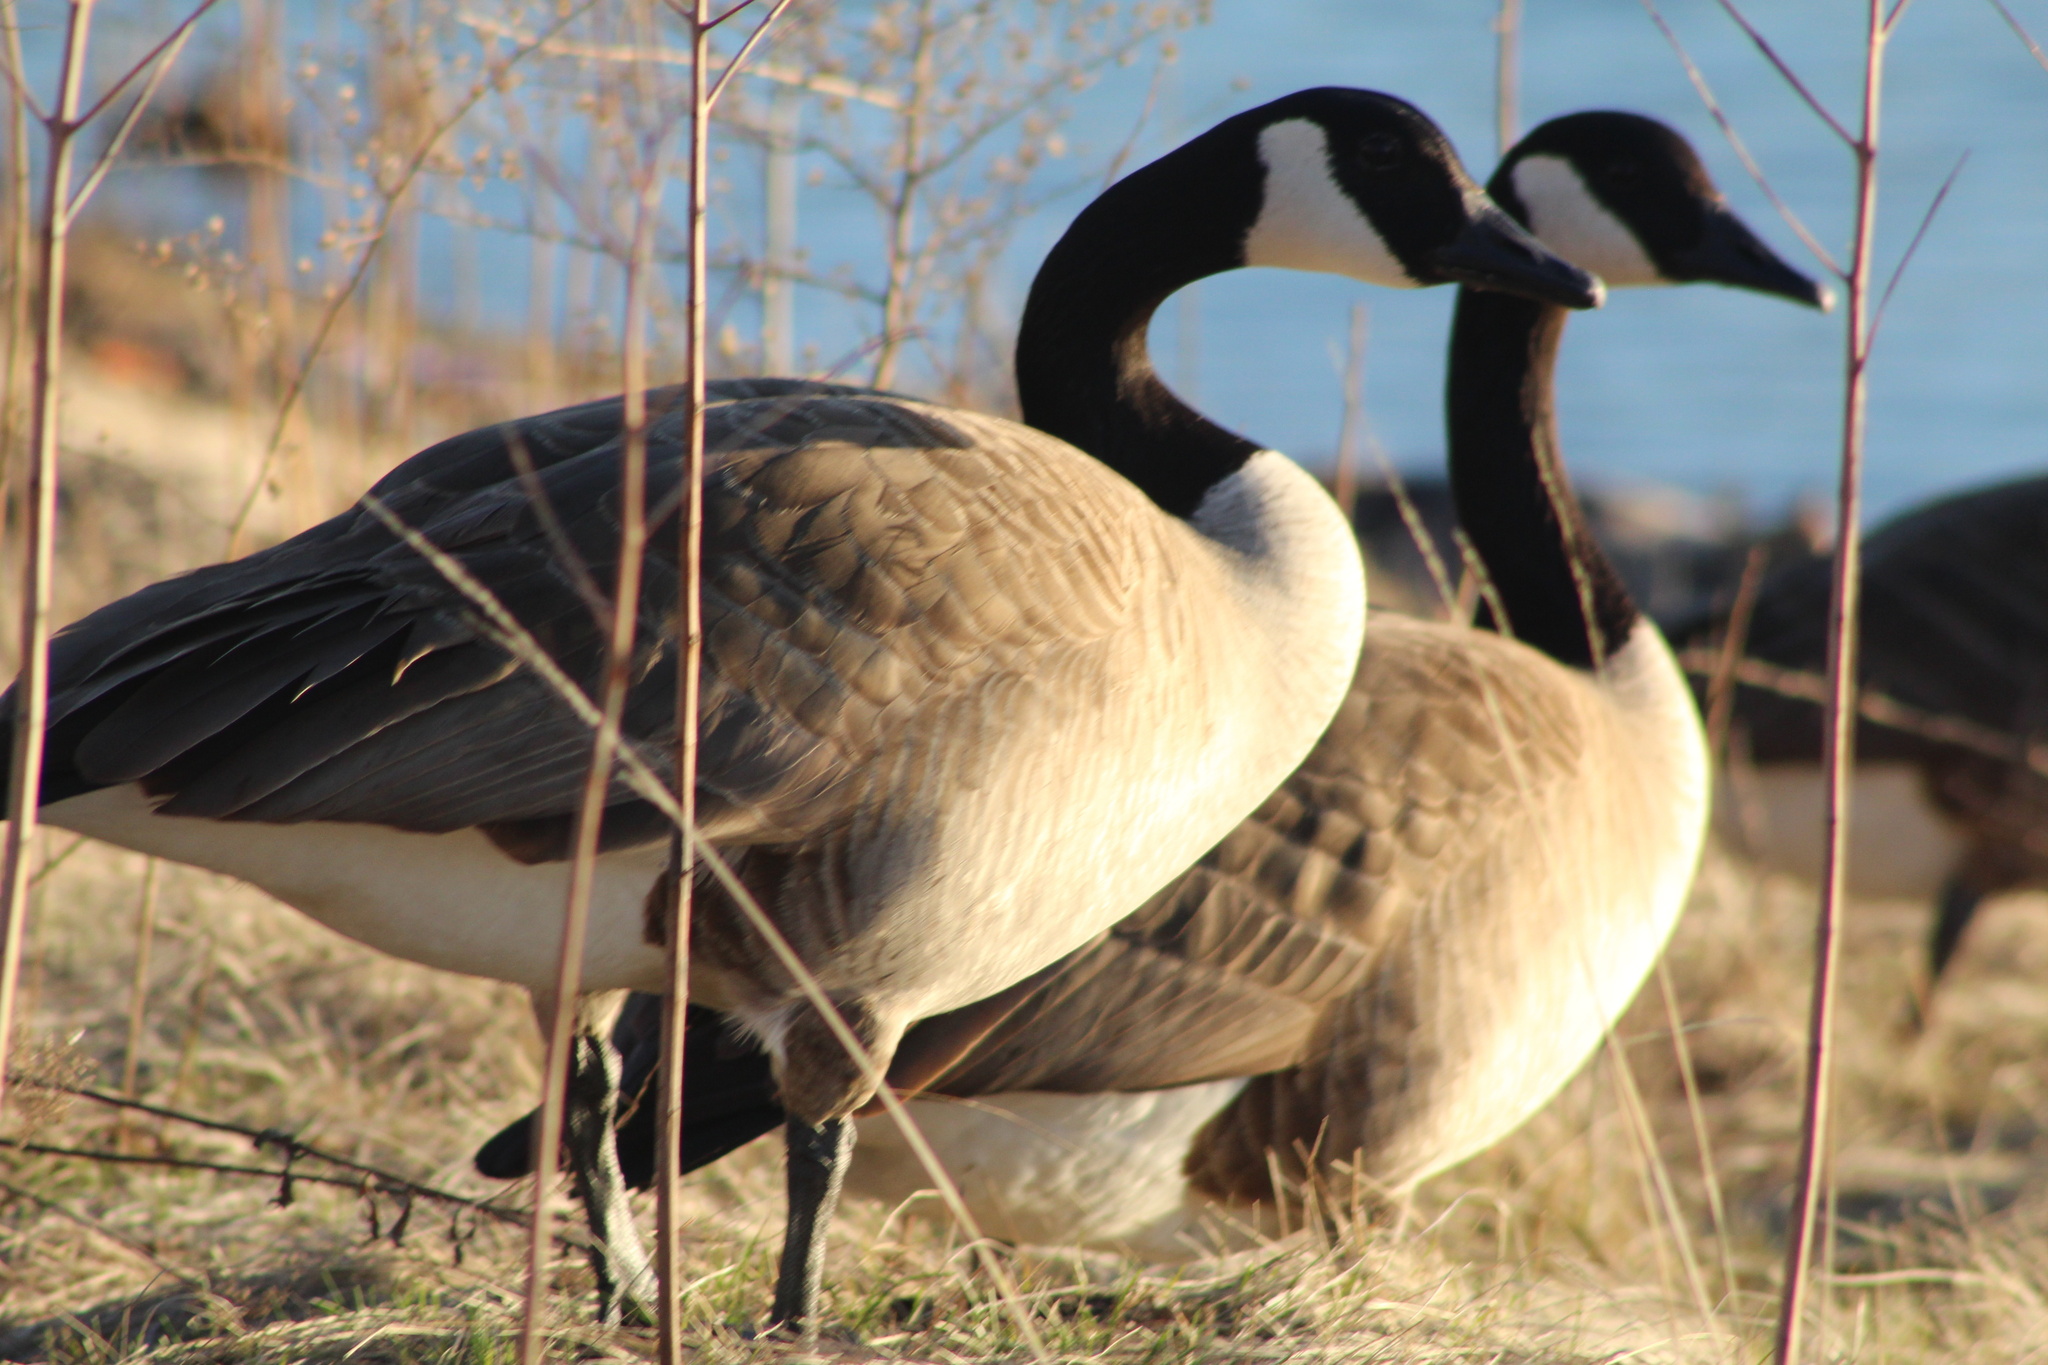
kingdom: Animalia
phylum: Chordata
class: Aves
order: Anseriformes
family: Anatidae
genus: Branta
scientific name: Branta canadensis
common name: Canada goose
